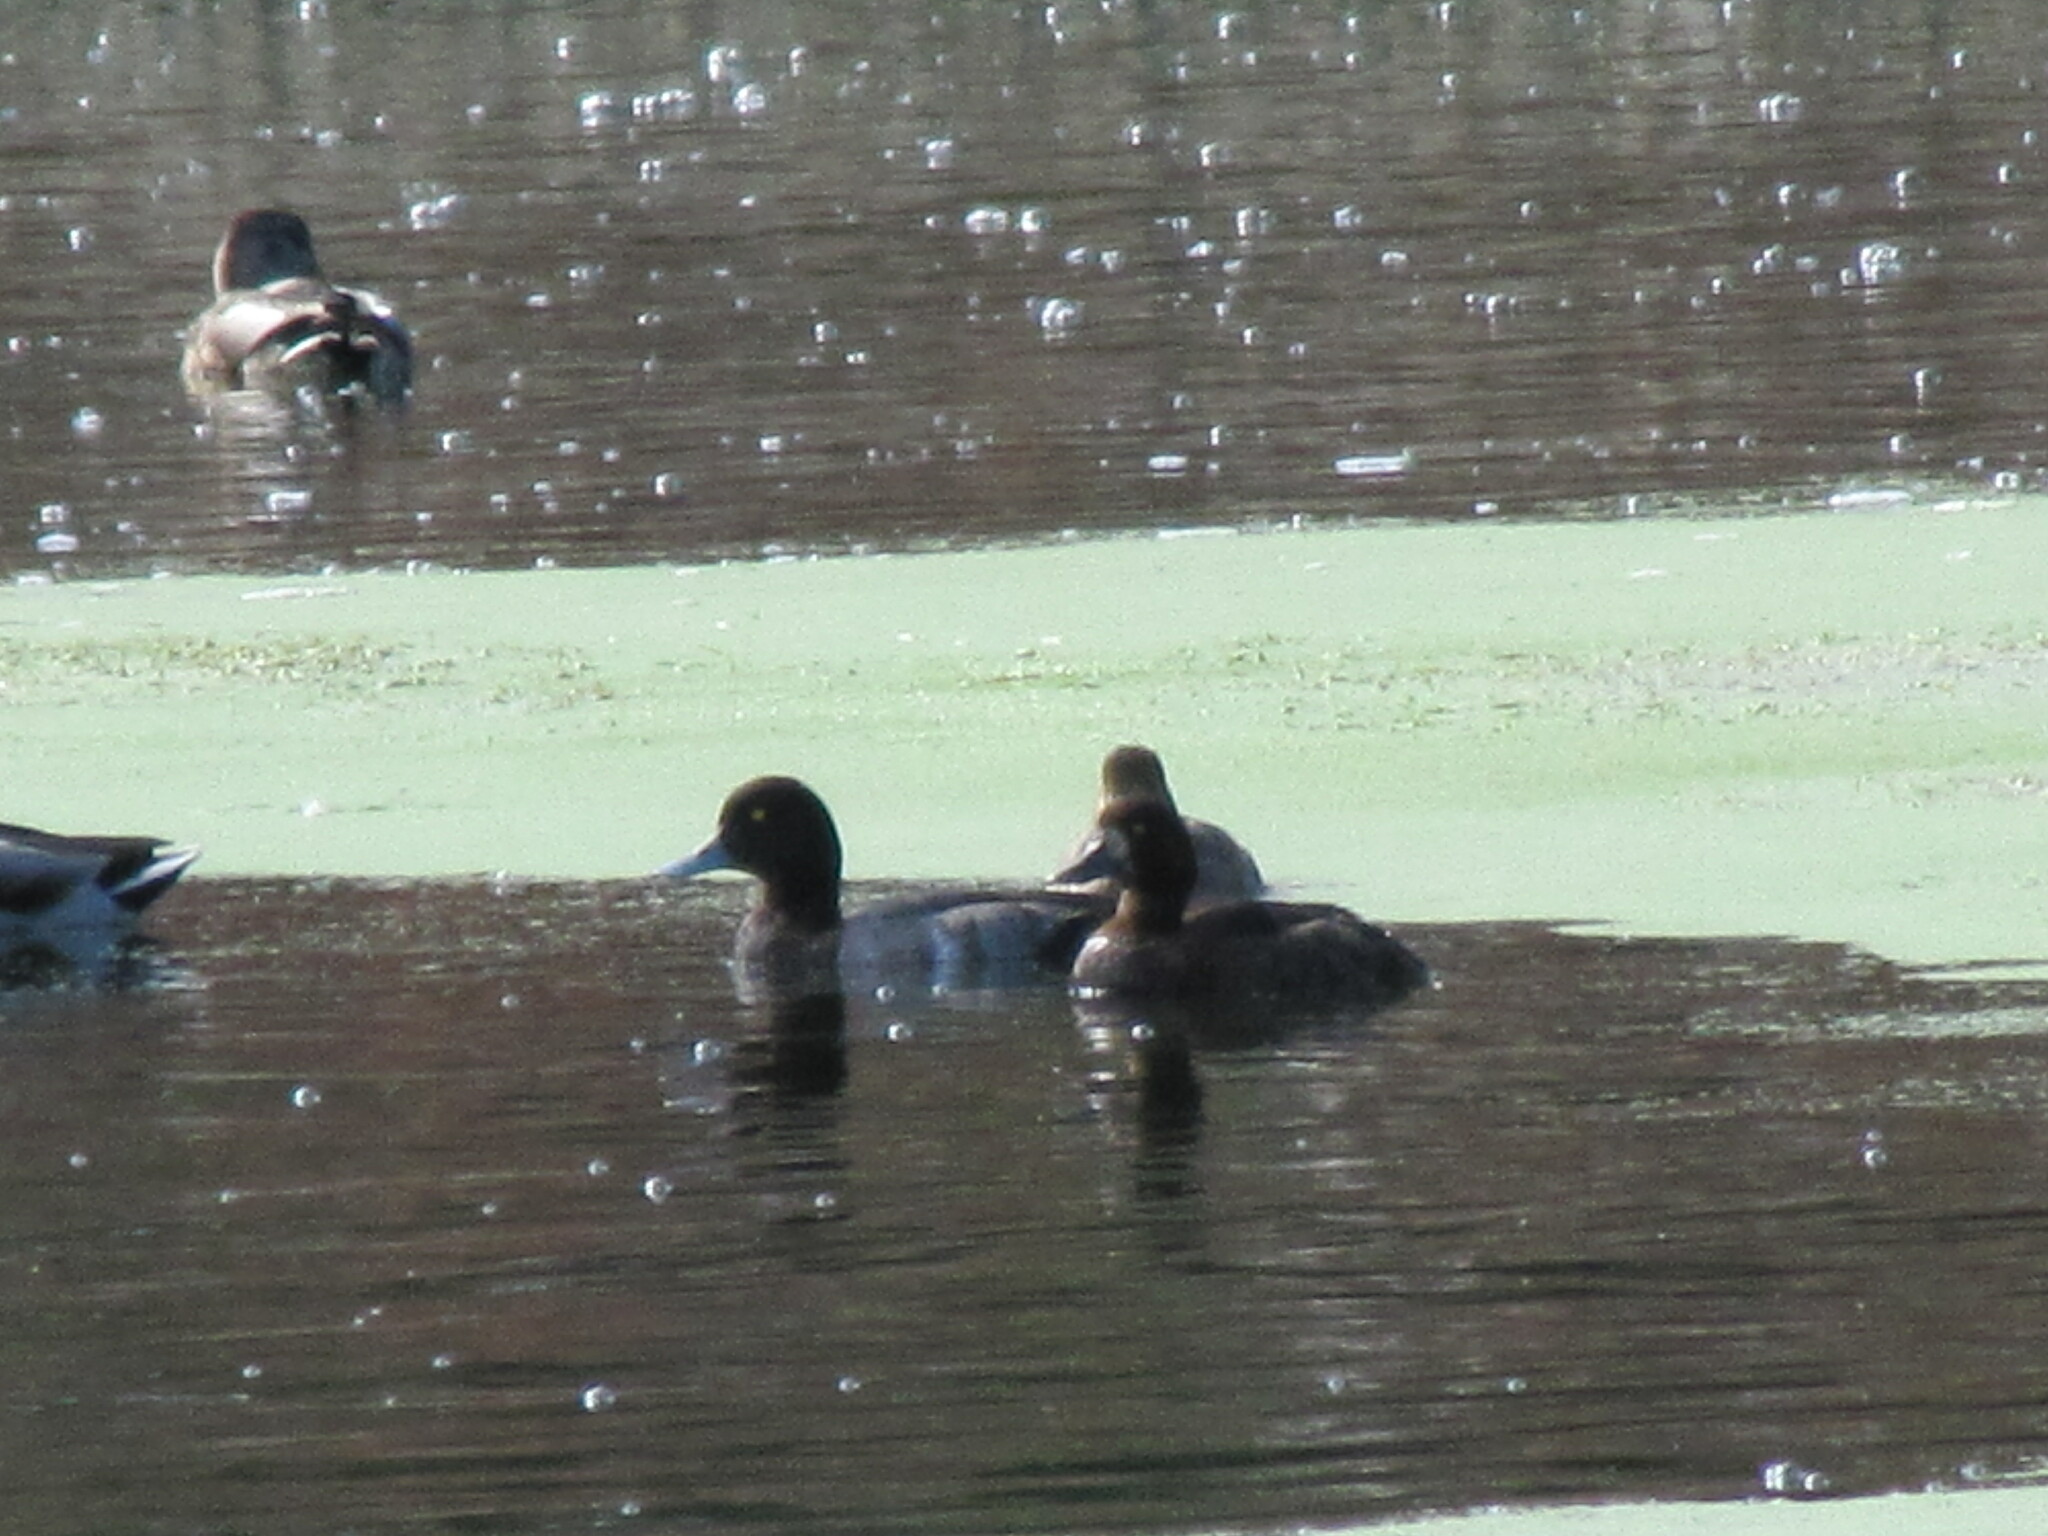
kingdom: Animalia
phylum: Chordata
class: Aves
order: Anseriformes
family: Anatidae
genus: Aythya
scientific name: Aythya marila
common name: Greater scaup
